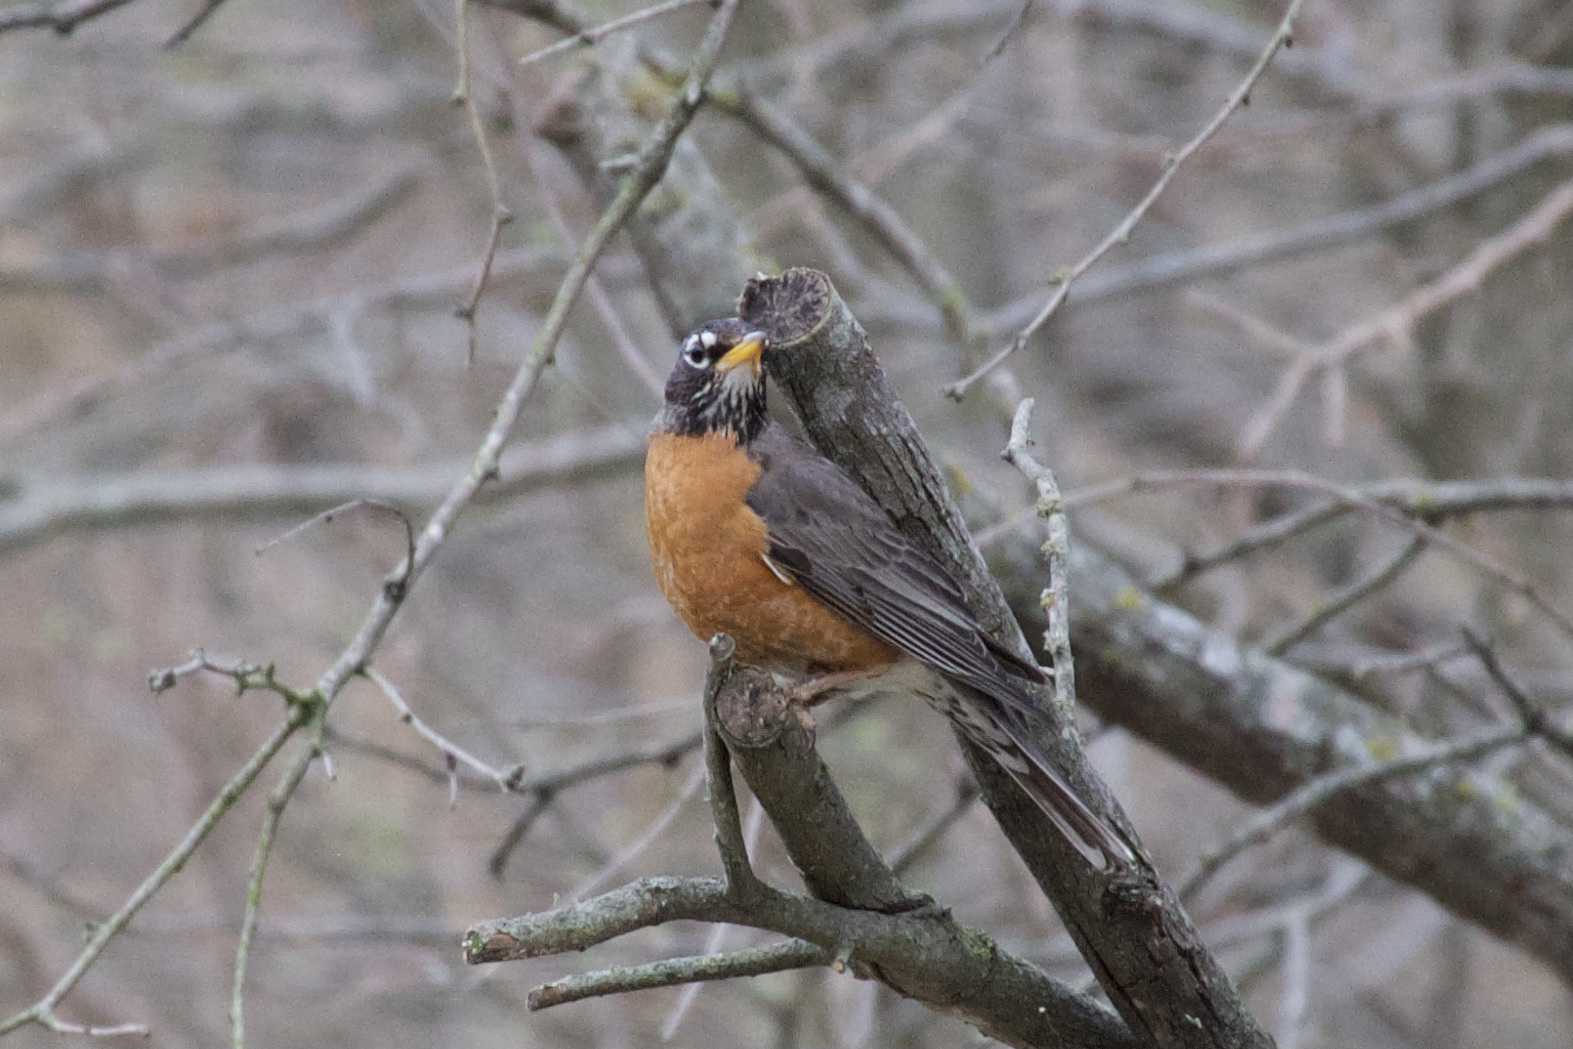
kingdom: Animalia
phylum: Chordata
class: Aves
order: Passeriformes
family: Turdidae
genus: Turdus
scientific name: Turdus migratorius
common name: American robin
